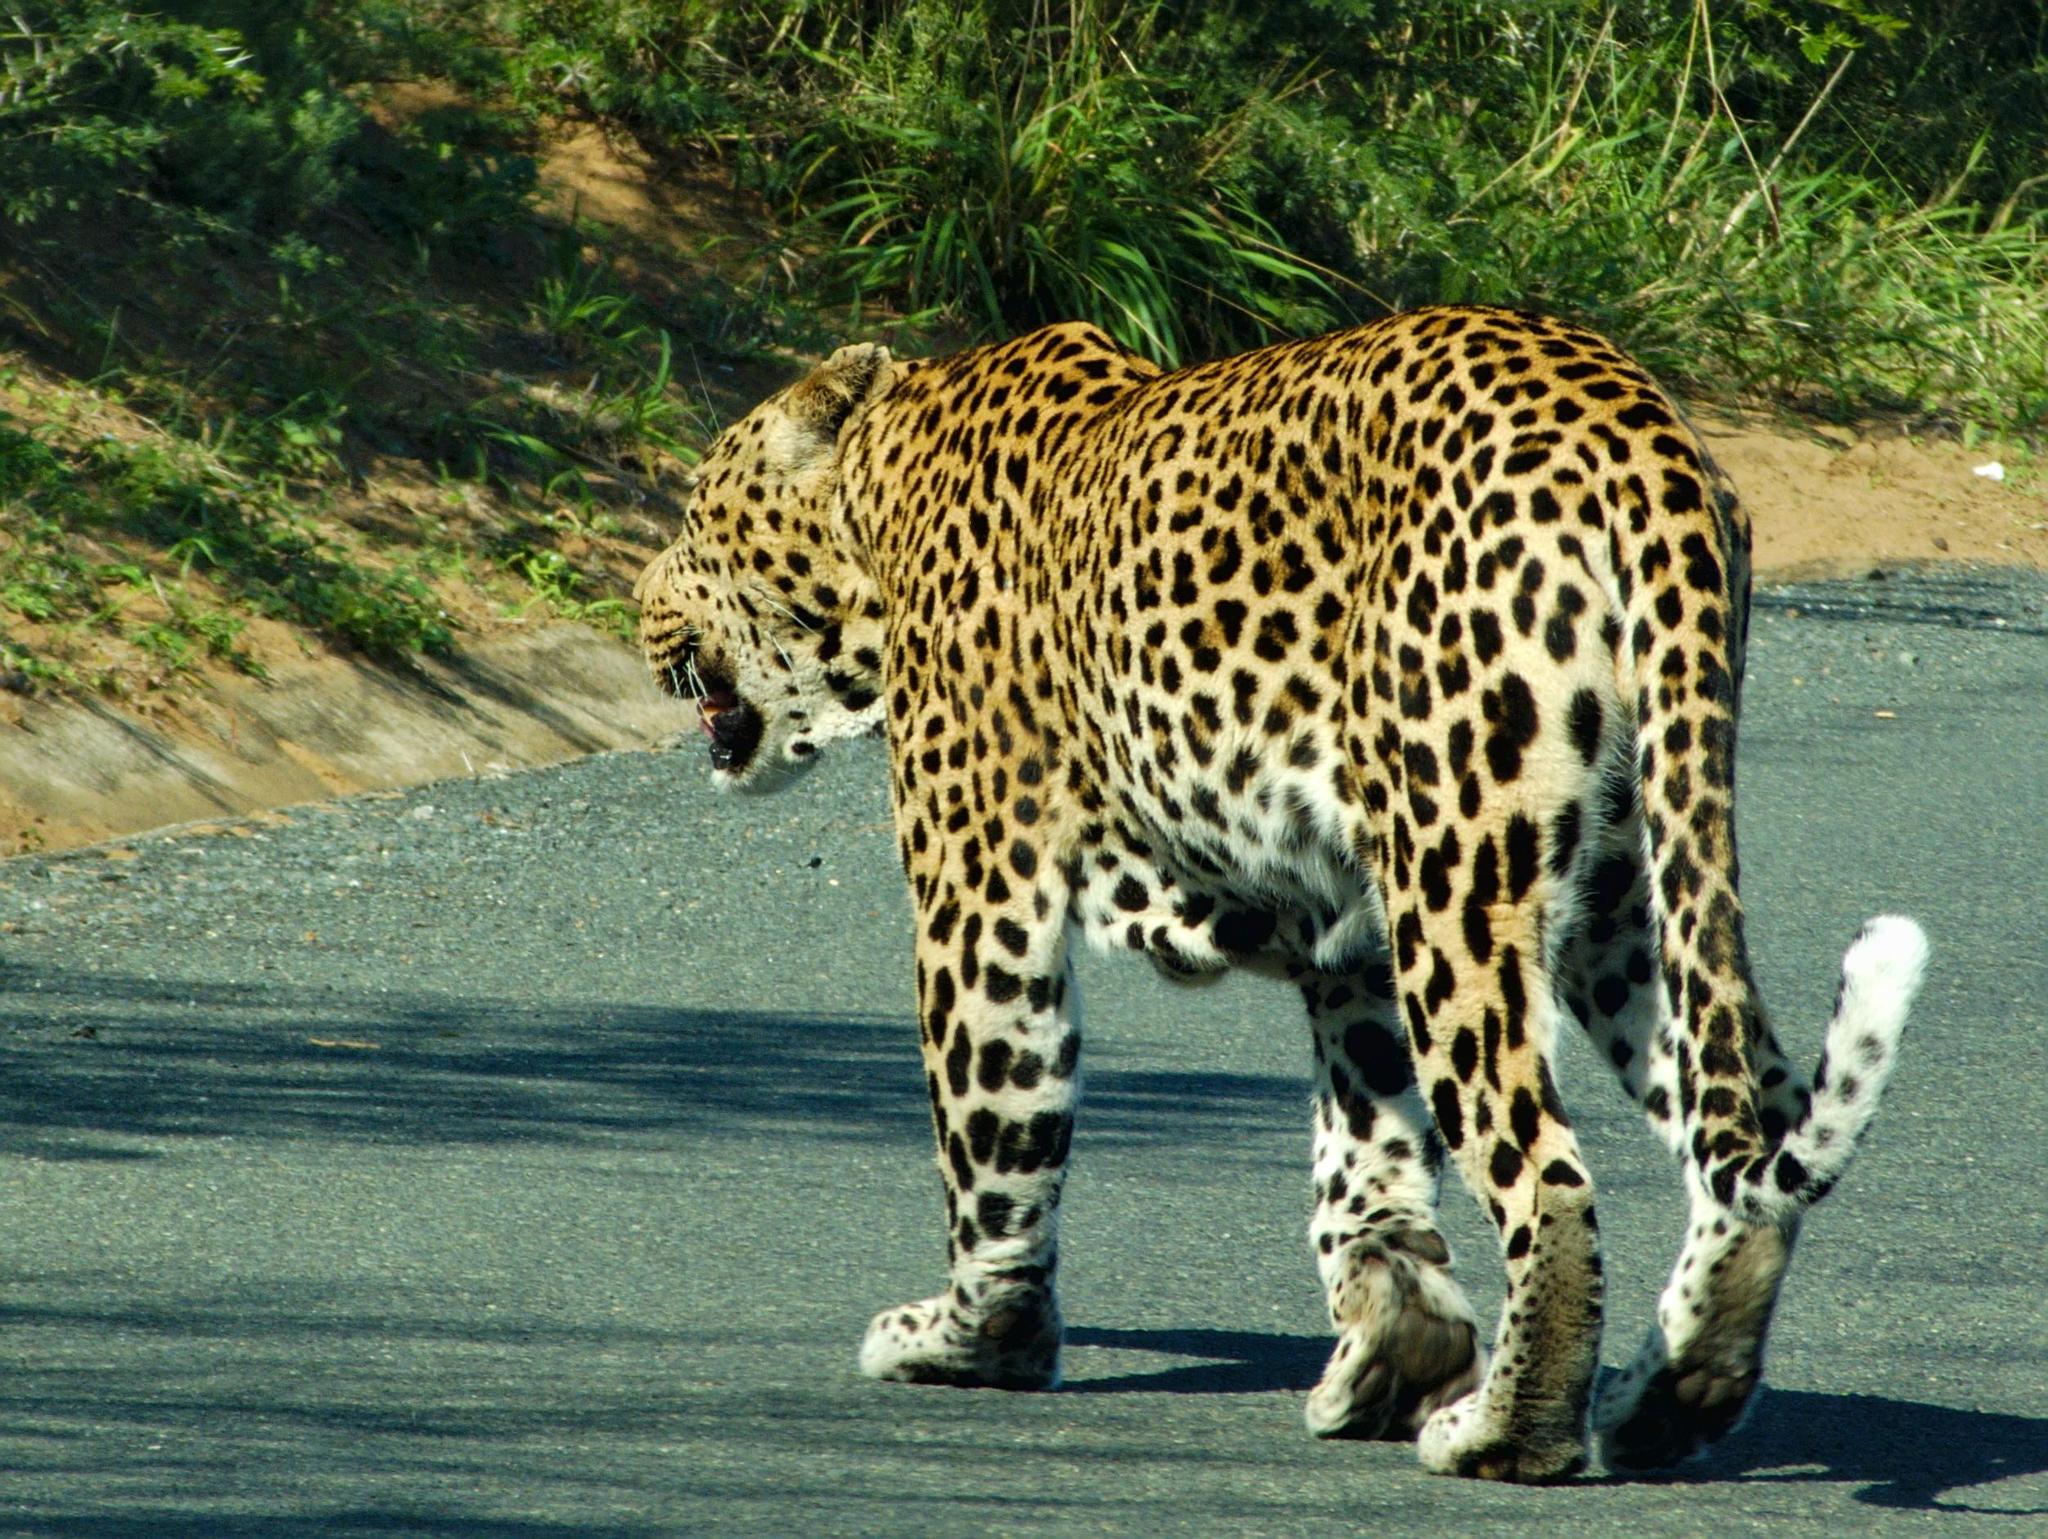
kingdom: Animalia
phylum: Chordata
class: Mammalia
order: Carnivora
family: Felidae
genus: Panthera
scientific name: Panthera pardus
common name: Leopard
